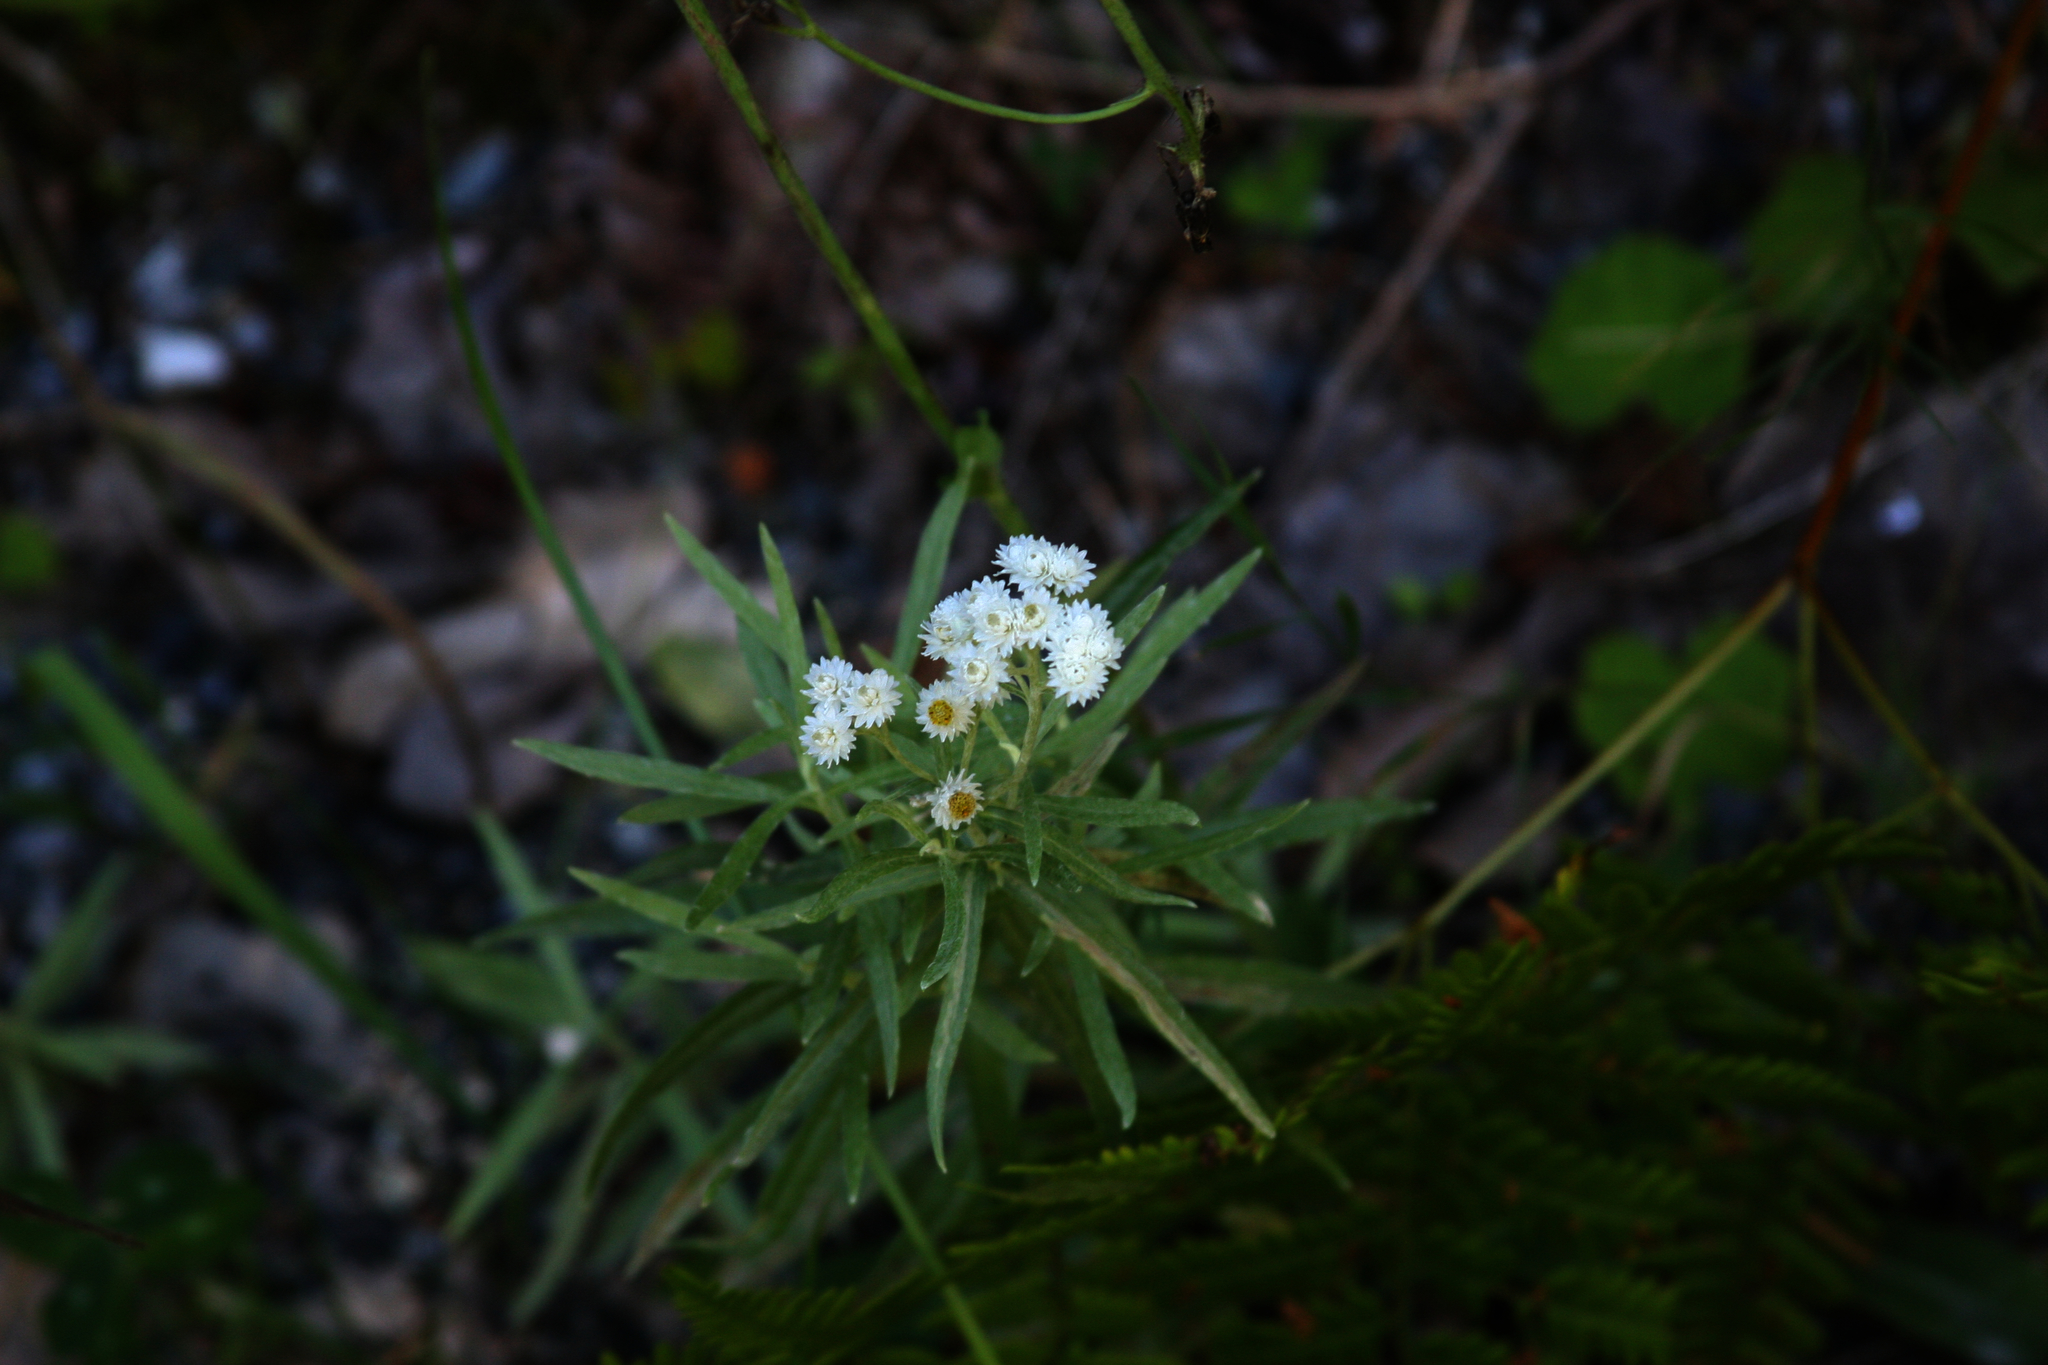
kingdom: Plantae
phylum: Tracheophyta
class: Magnoliopsida
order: Asterales
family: Asteraceae
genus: Anaphalis
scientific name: Anaphalis margaritacea
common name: Pearly everlasting
